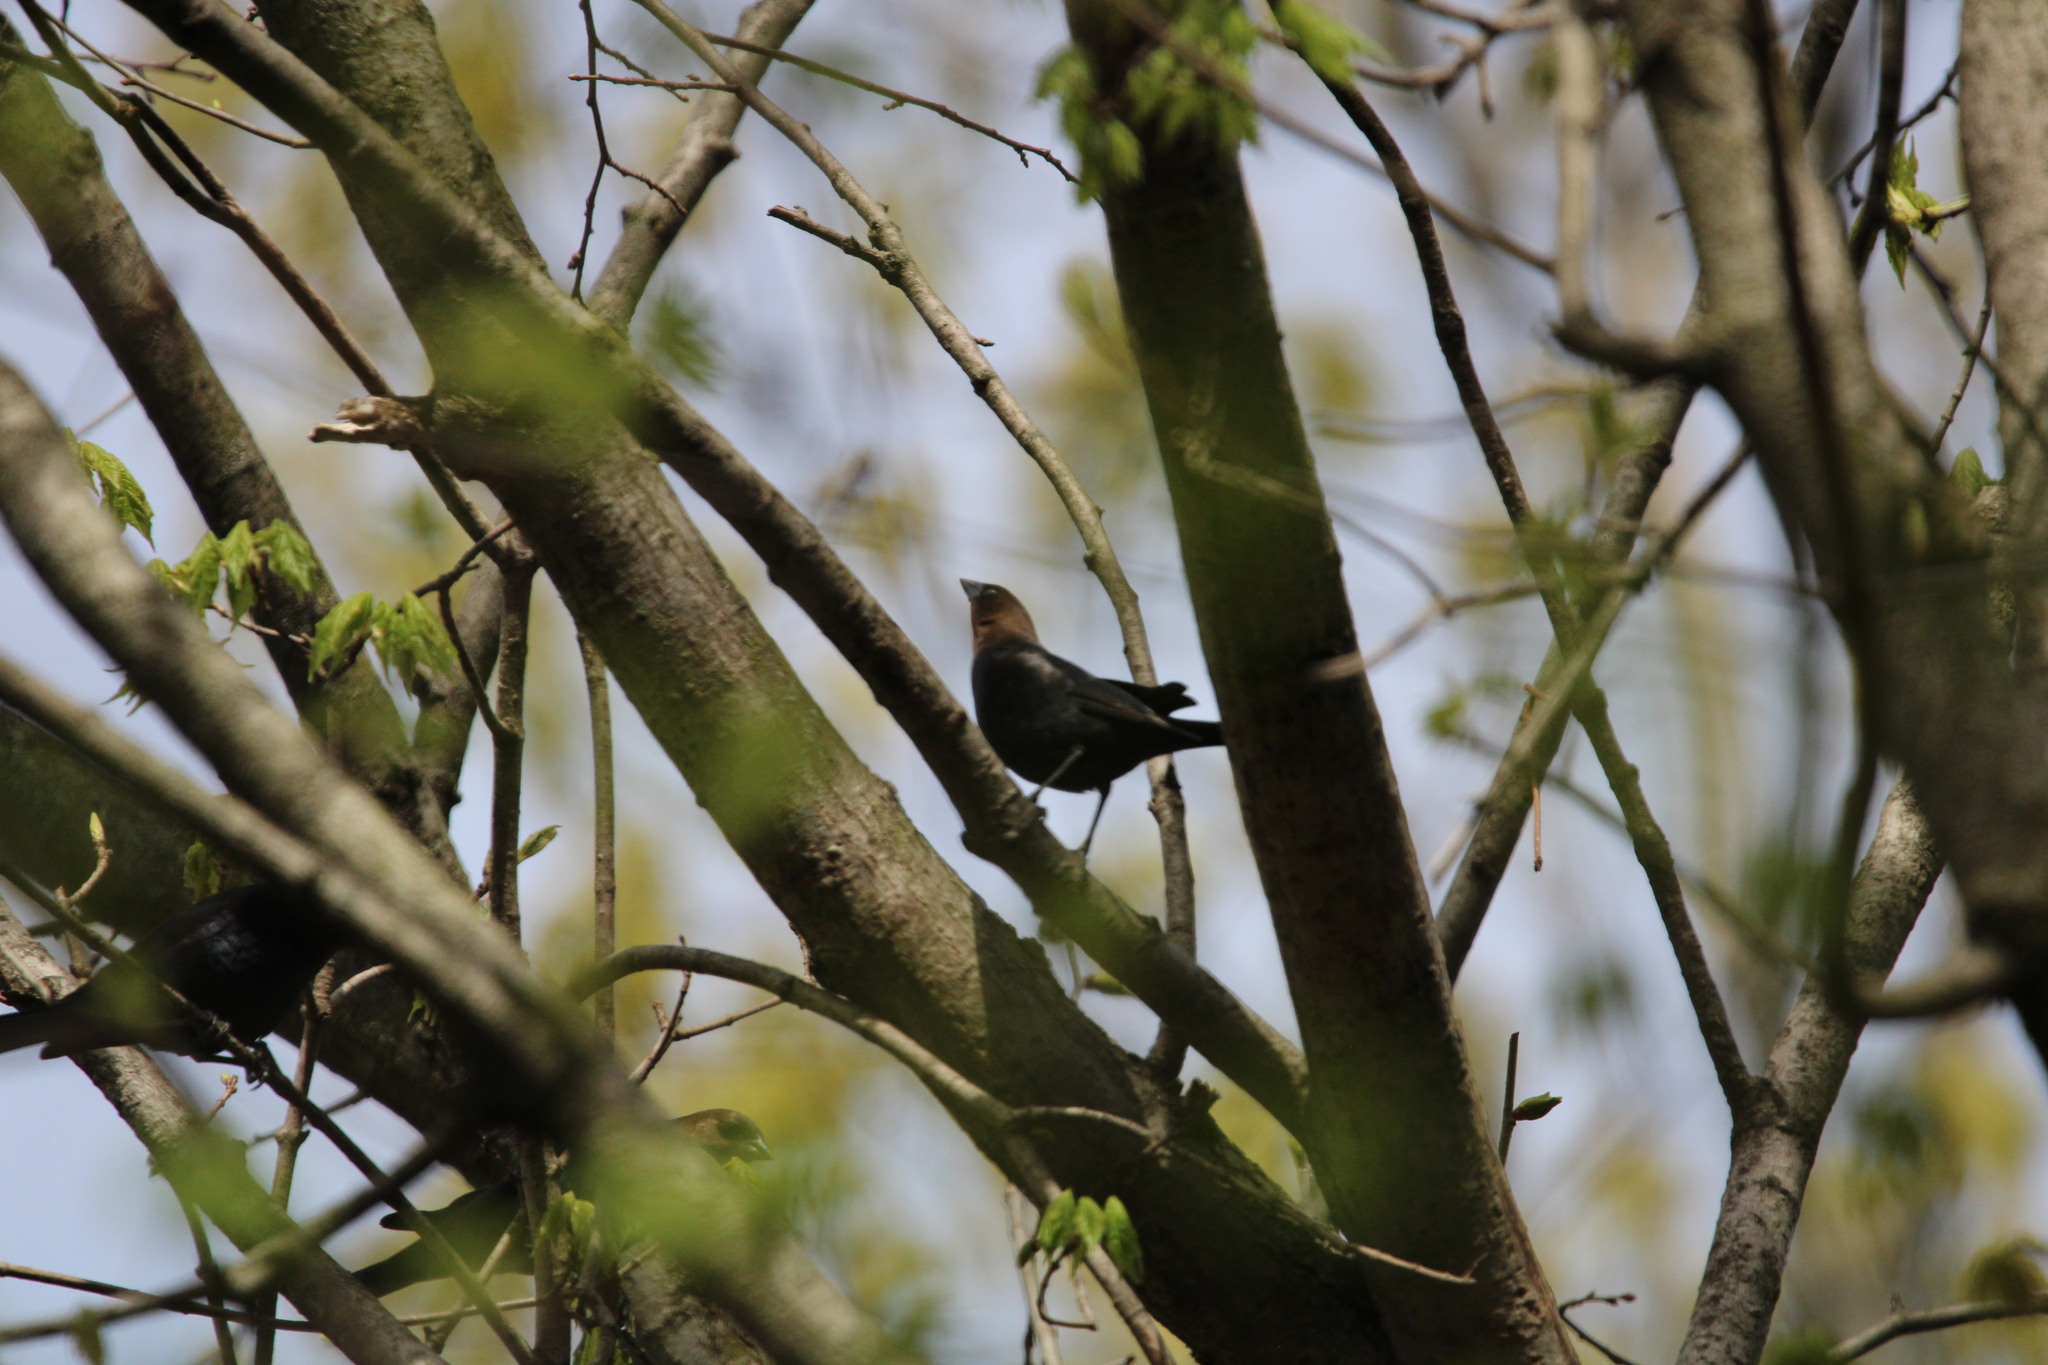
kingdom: Animalia
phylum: Chordata
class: Aves
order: Passeriformes
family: Icteridae
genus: Molothrus
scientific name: Molothrus ater
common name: Brown-headed cowbird
